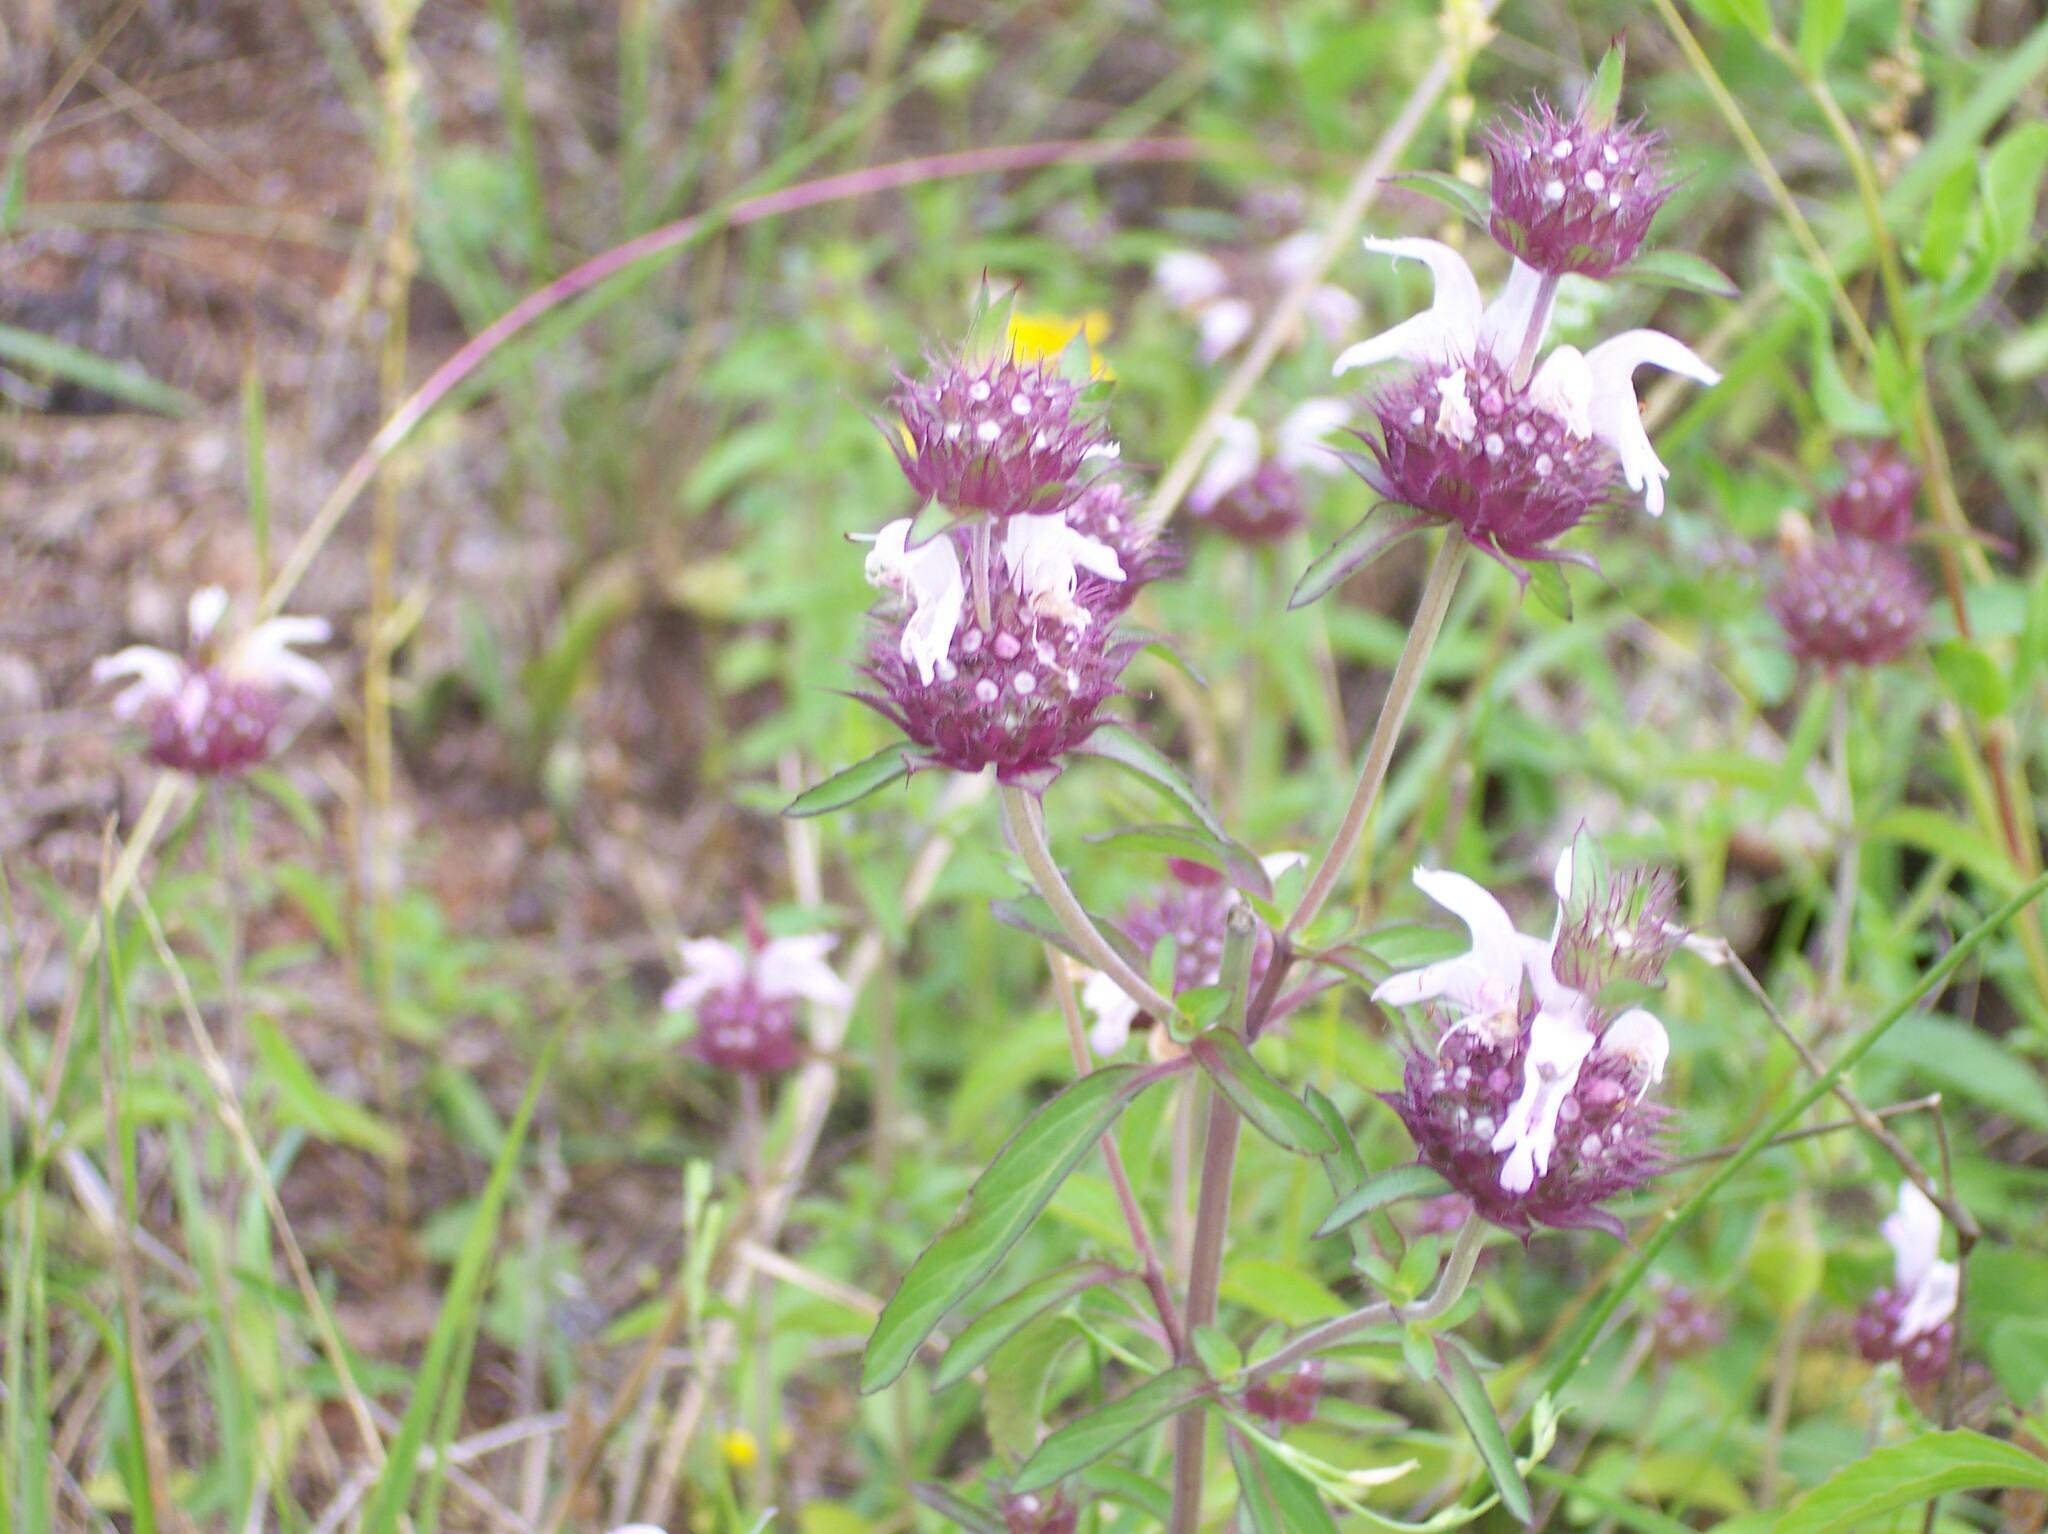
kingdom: Plantae
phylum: Tracheophyta
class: Magnoliopsida
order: Lamiales
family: Lamiaceae
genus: Monarda
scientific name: Monarda citriodora
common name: Lemon beebalm
